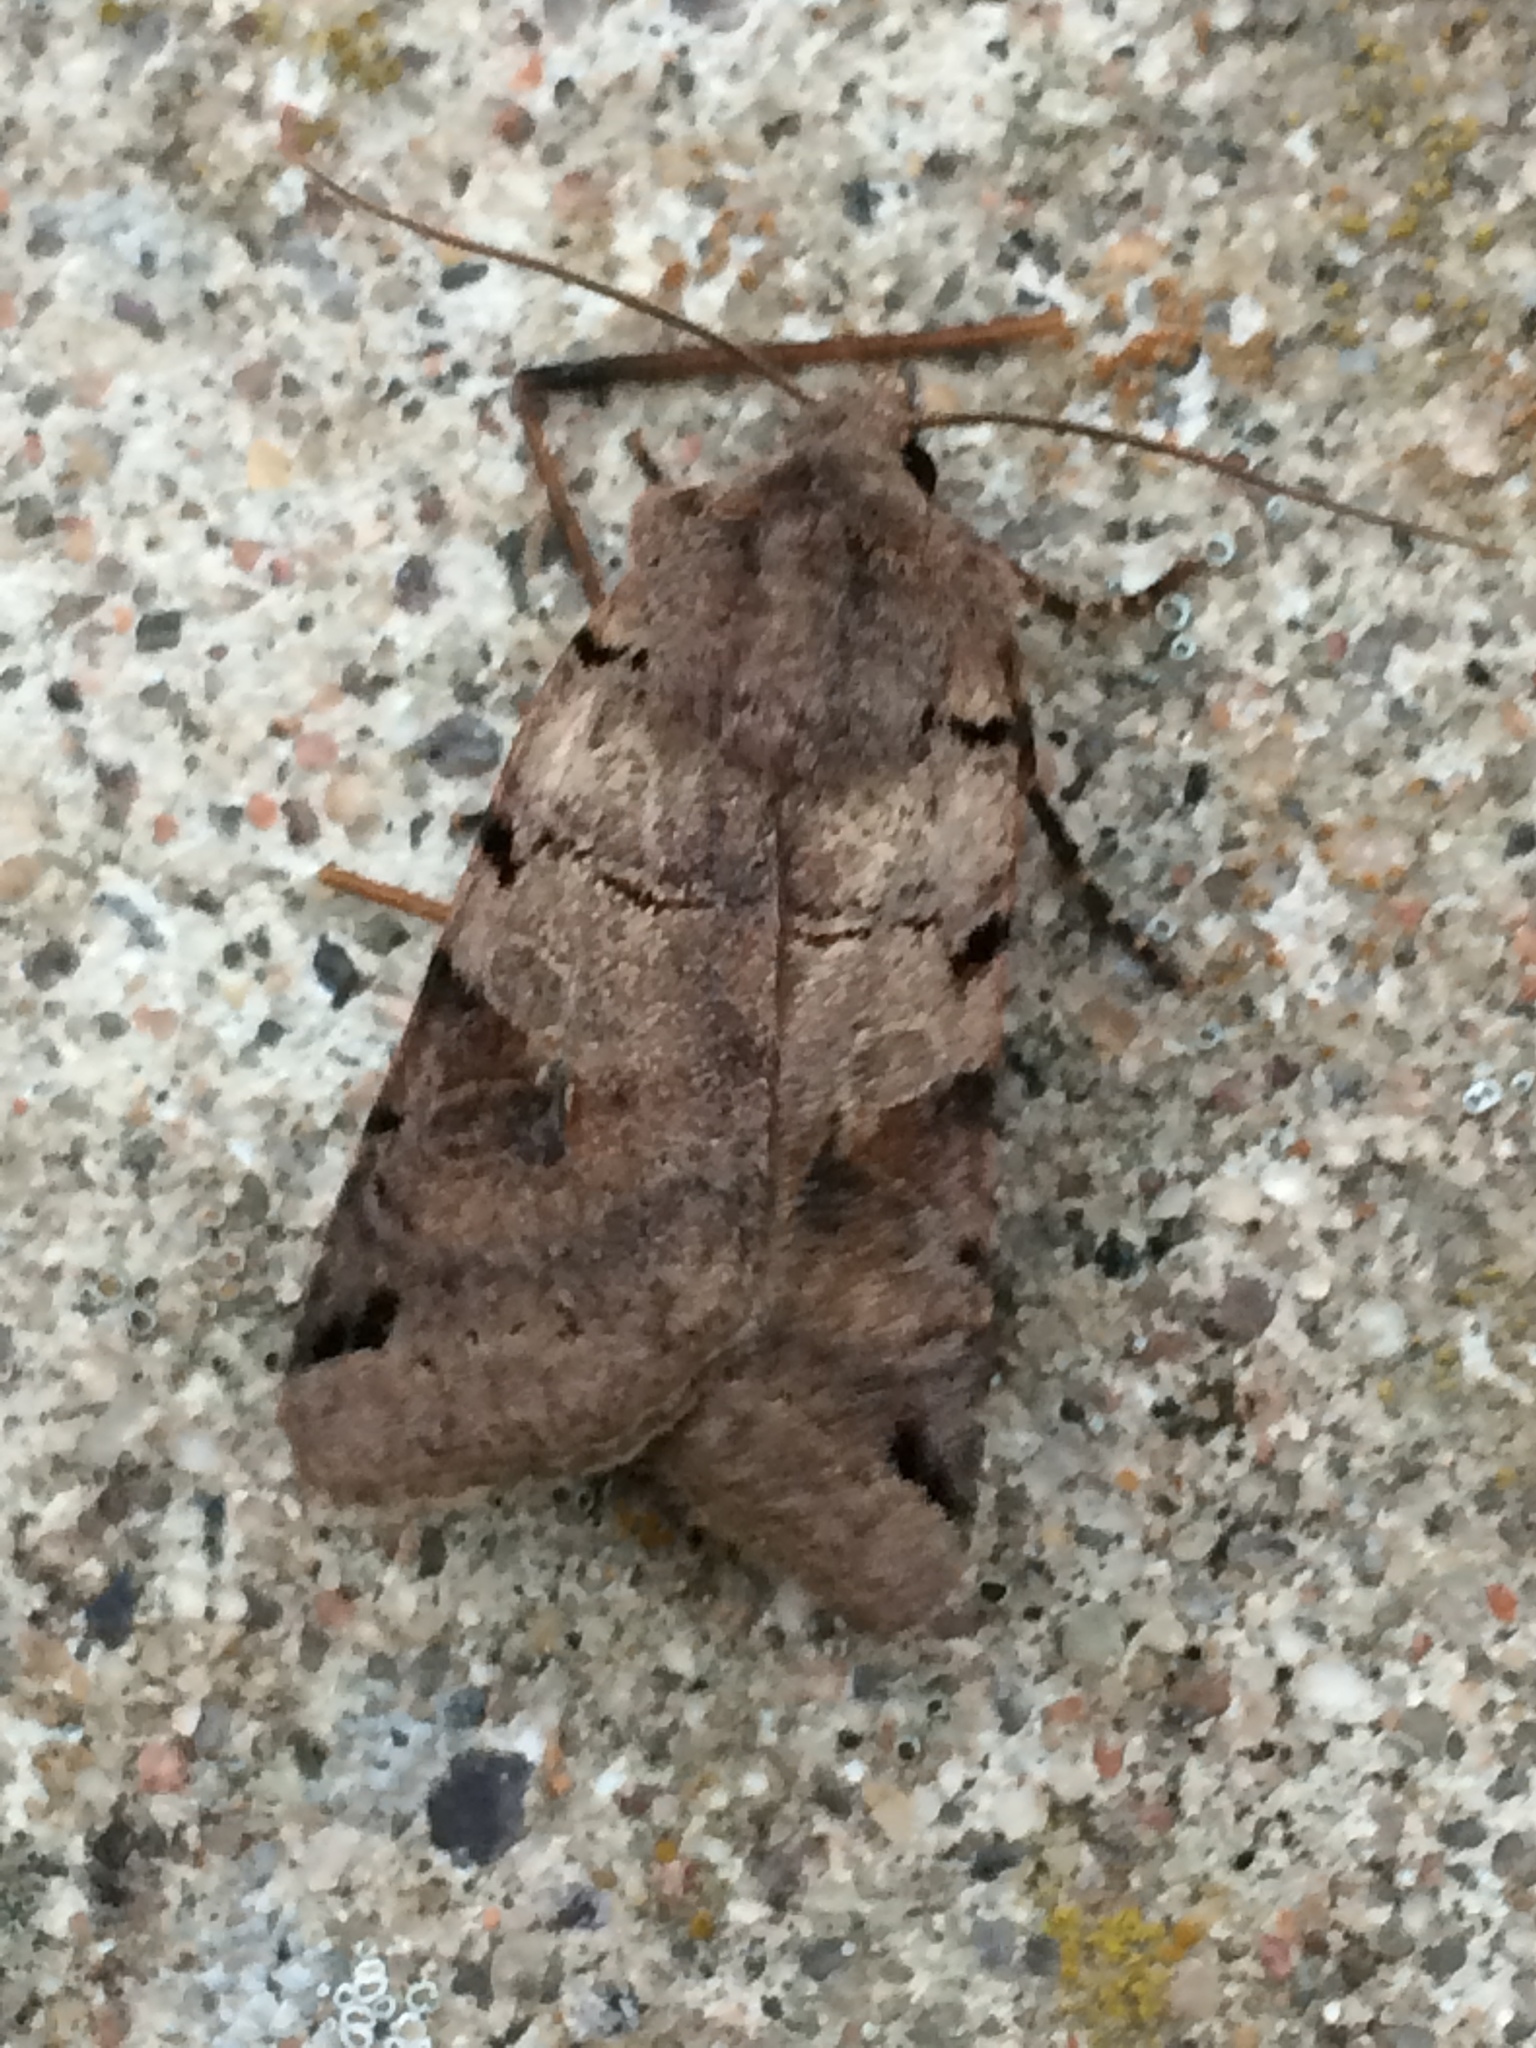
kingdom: Animalia
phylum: Arthropoda
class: Insecta
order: Lepidoptera
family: Noctuidae
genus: Agrochola
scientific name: Agrochola litura
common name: Brown-spot pinion
